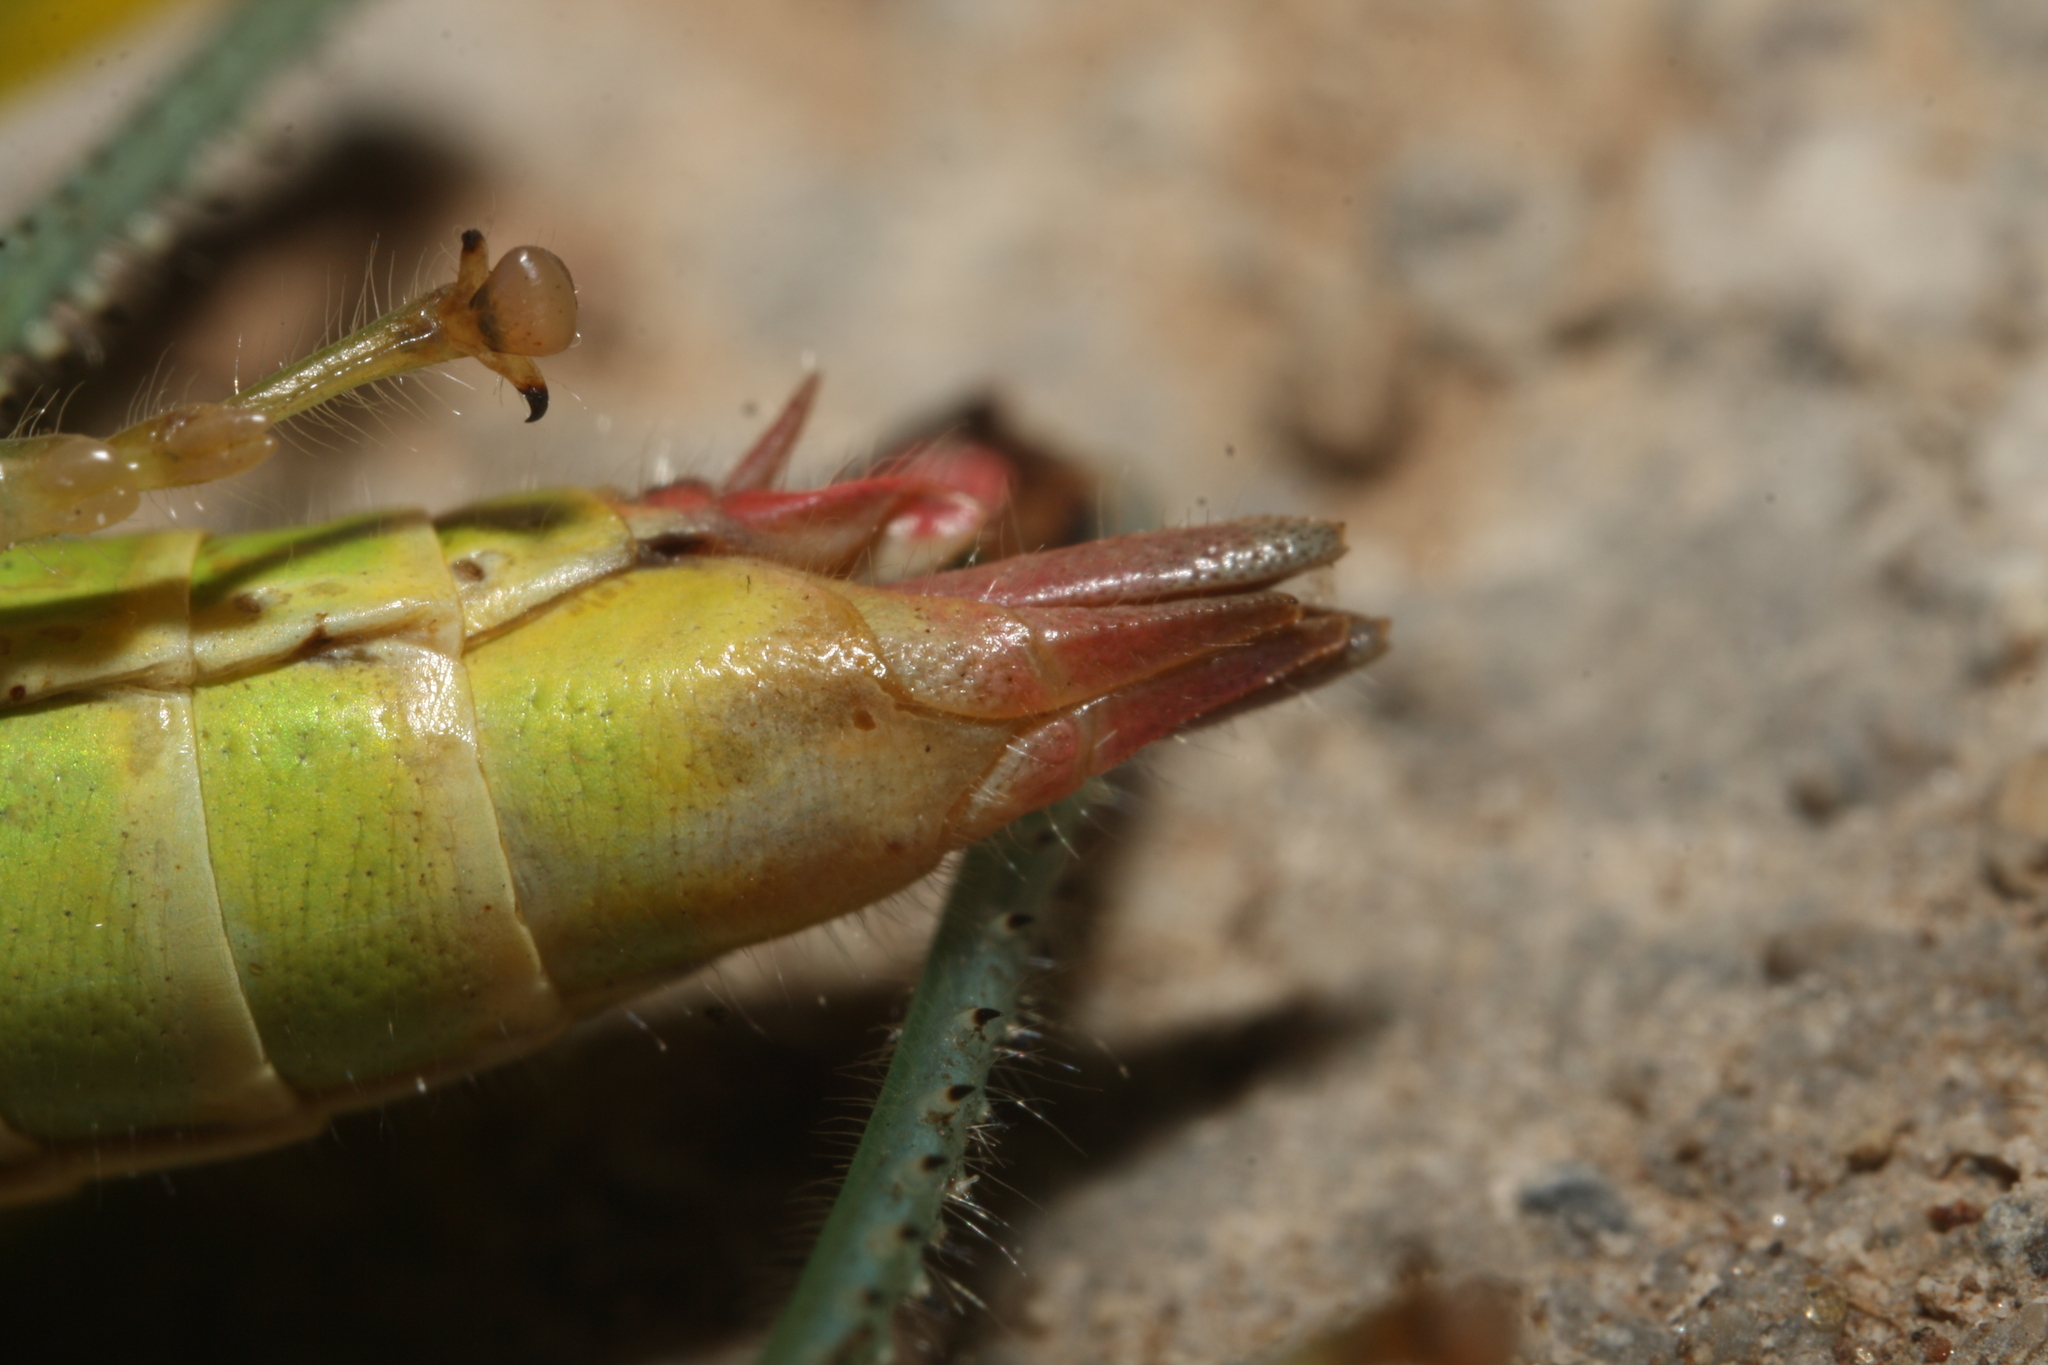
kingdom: Animalia
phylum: Arthropoda
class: Insecta
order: Orthoptera
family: Acrididae
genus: Odontopodisma
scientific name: Odontopodisma decipiens
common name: Cheating mountain grasshopper
